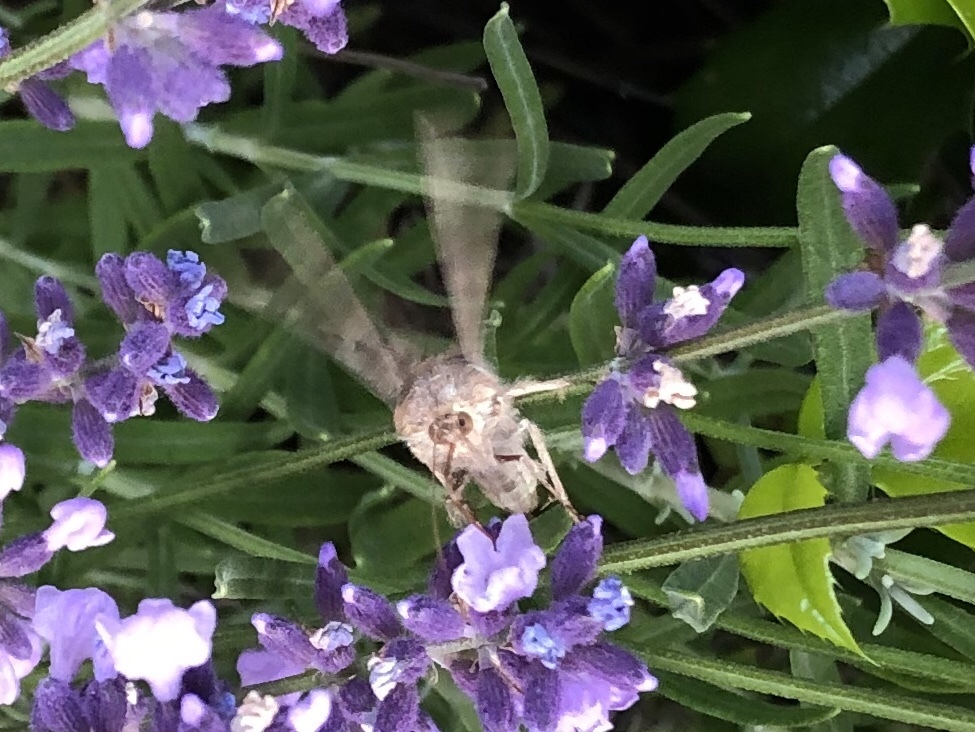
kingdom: Animalia
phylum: Arthropoda
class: Insecta
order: Lepidoptera
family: Noctuidae
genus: Autographa
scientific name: Autographa gamma
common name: Silver y
